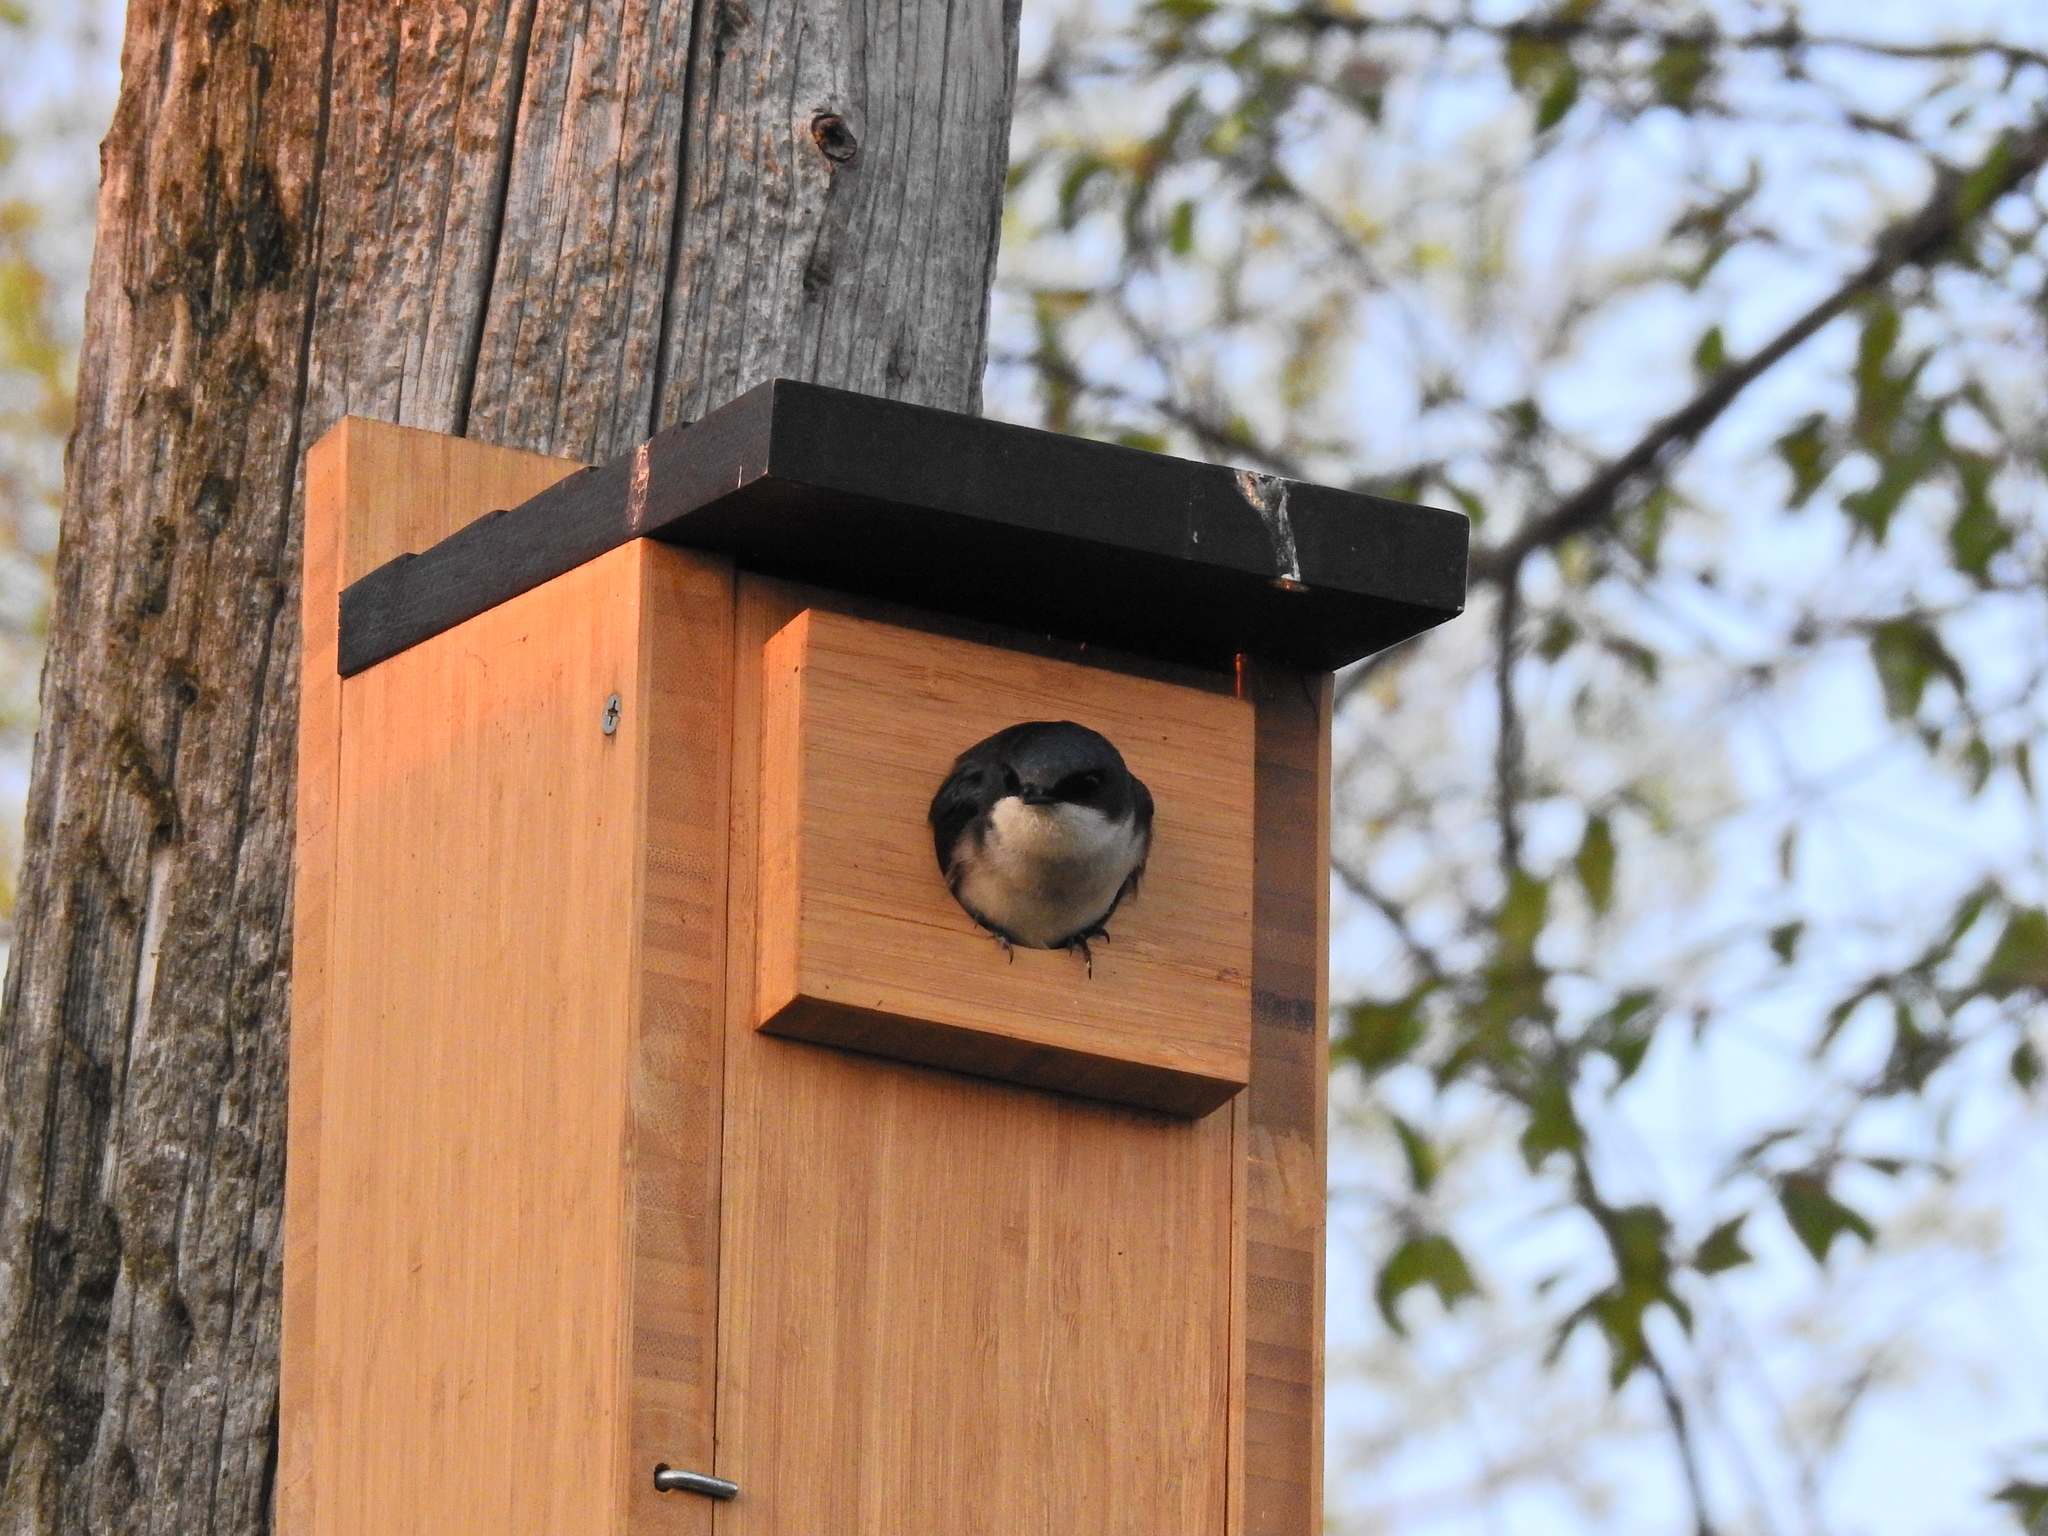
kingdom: Animalia
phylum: Chordata
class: Aves
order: Passeriformes
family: Hirundinidae
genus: Tachycineta
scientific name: Tachycineta bicolor
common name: Tree swallow
